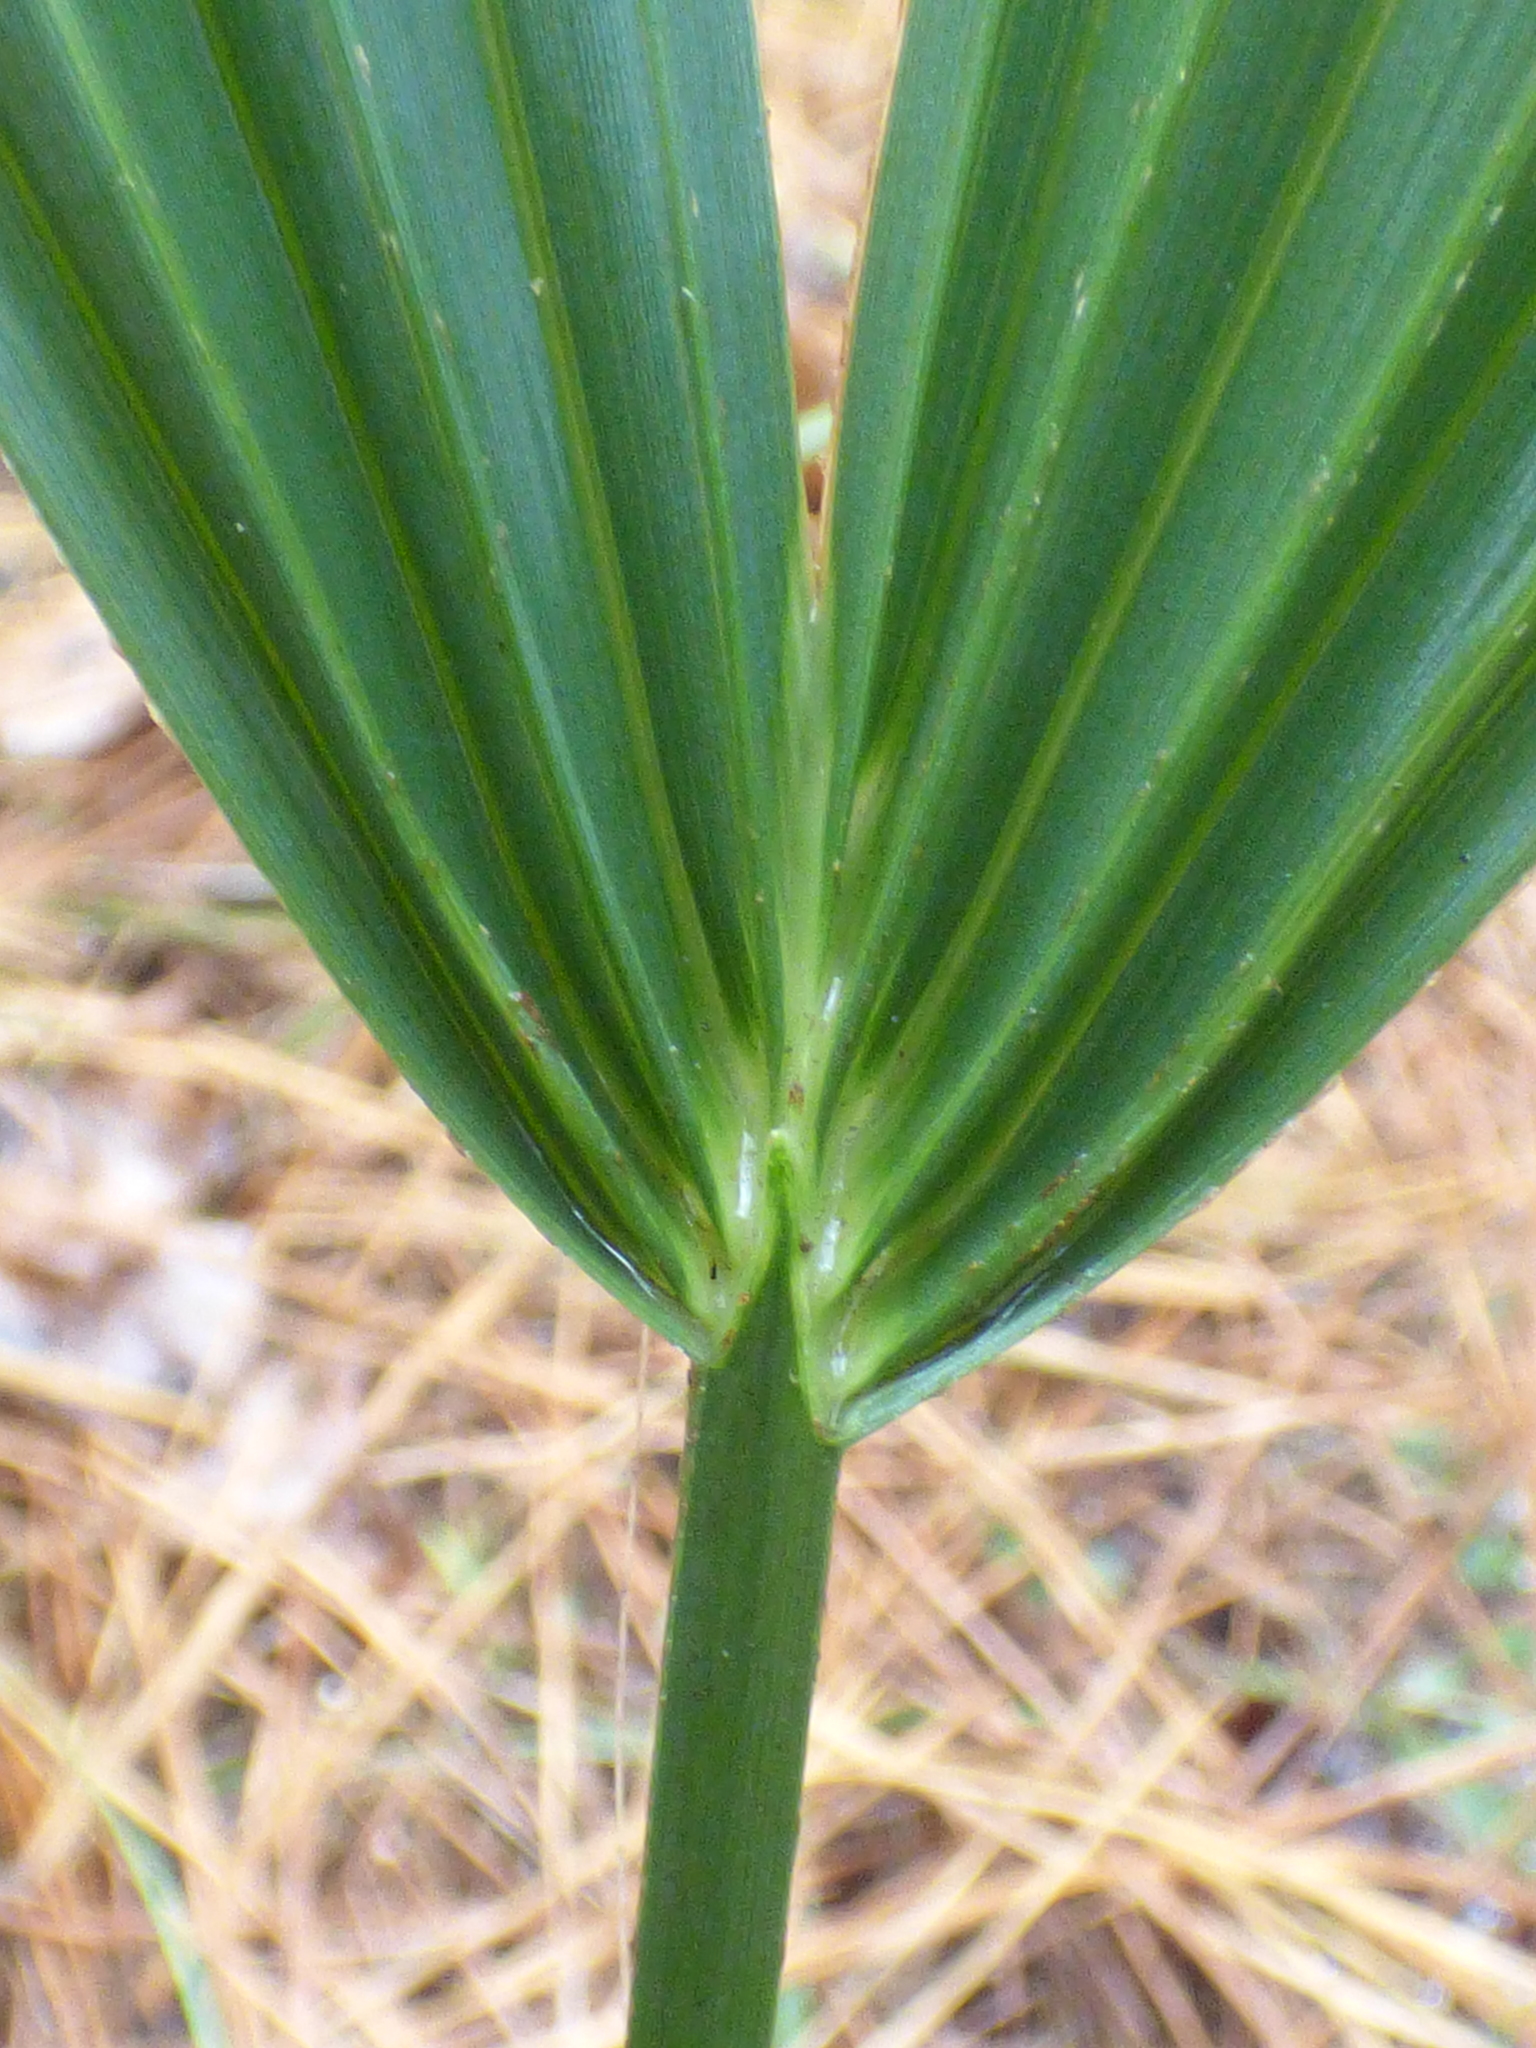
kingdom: Plantae
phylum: Tracheophyta
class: Liliopsida
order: Arecales
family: Arecaceae
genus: Sabal
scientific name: Sabal minor
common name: Dwarf palmetto
